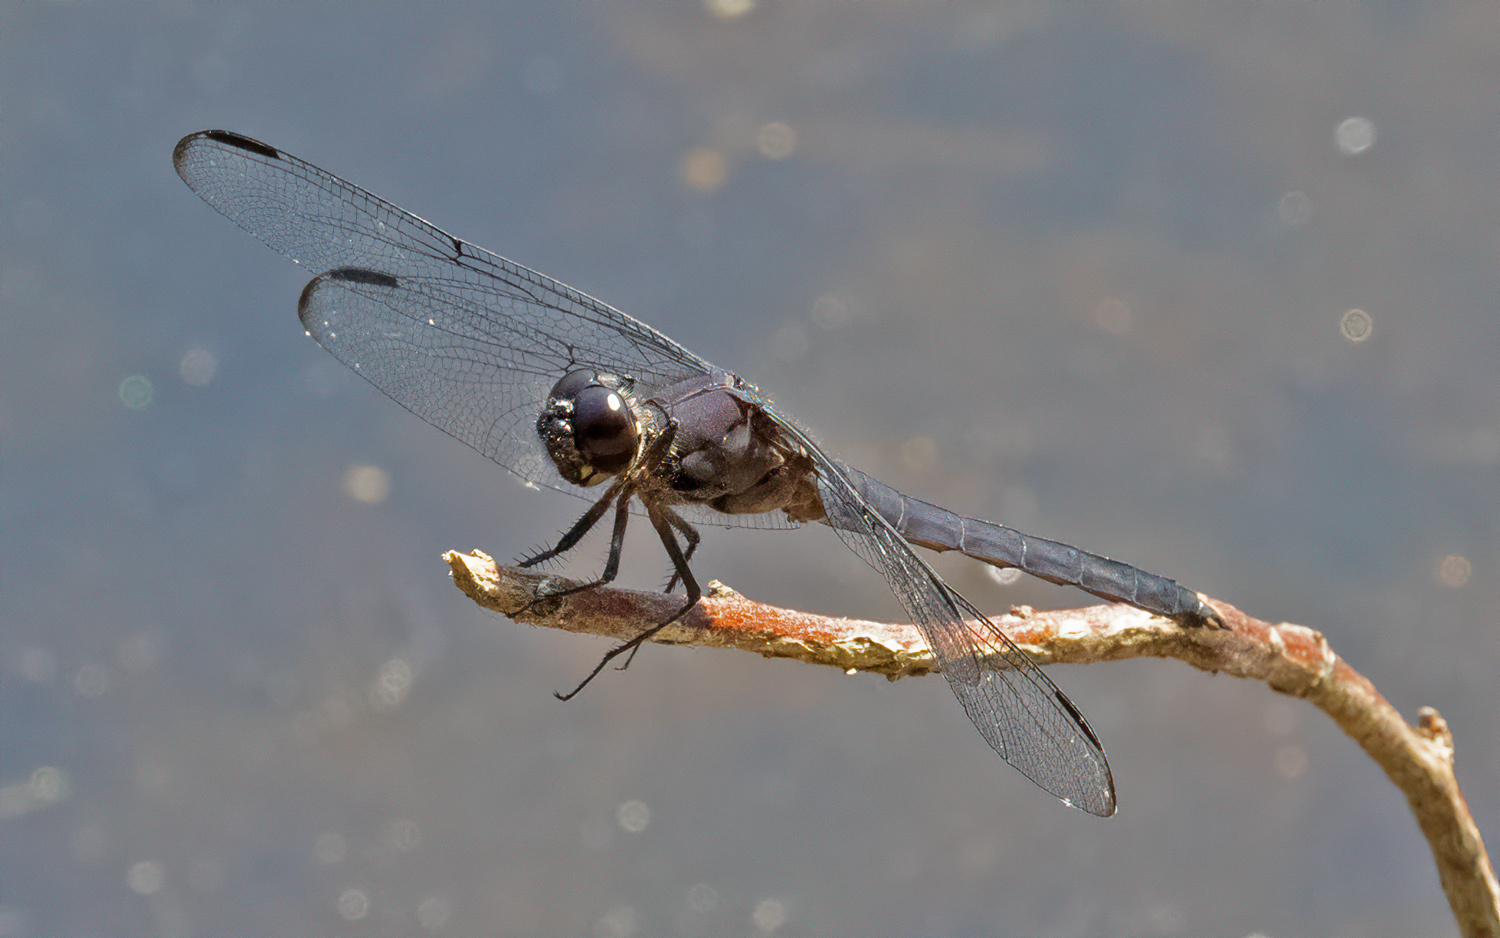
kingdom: Animalia
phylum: Arthropoda
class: Insecta
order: Odonata
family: Libellulidae
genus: Libellula
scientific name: Libellula incesta
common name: Slaty skimmer
